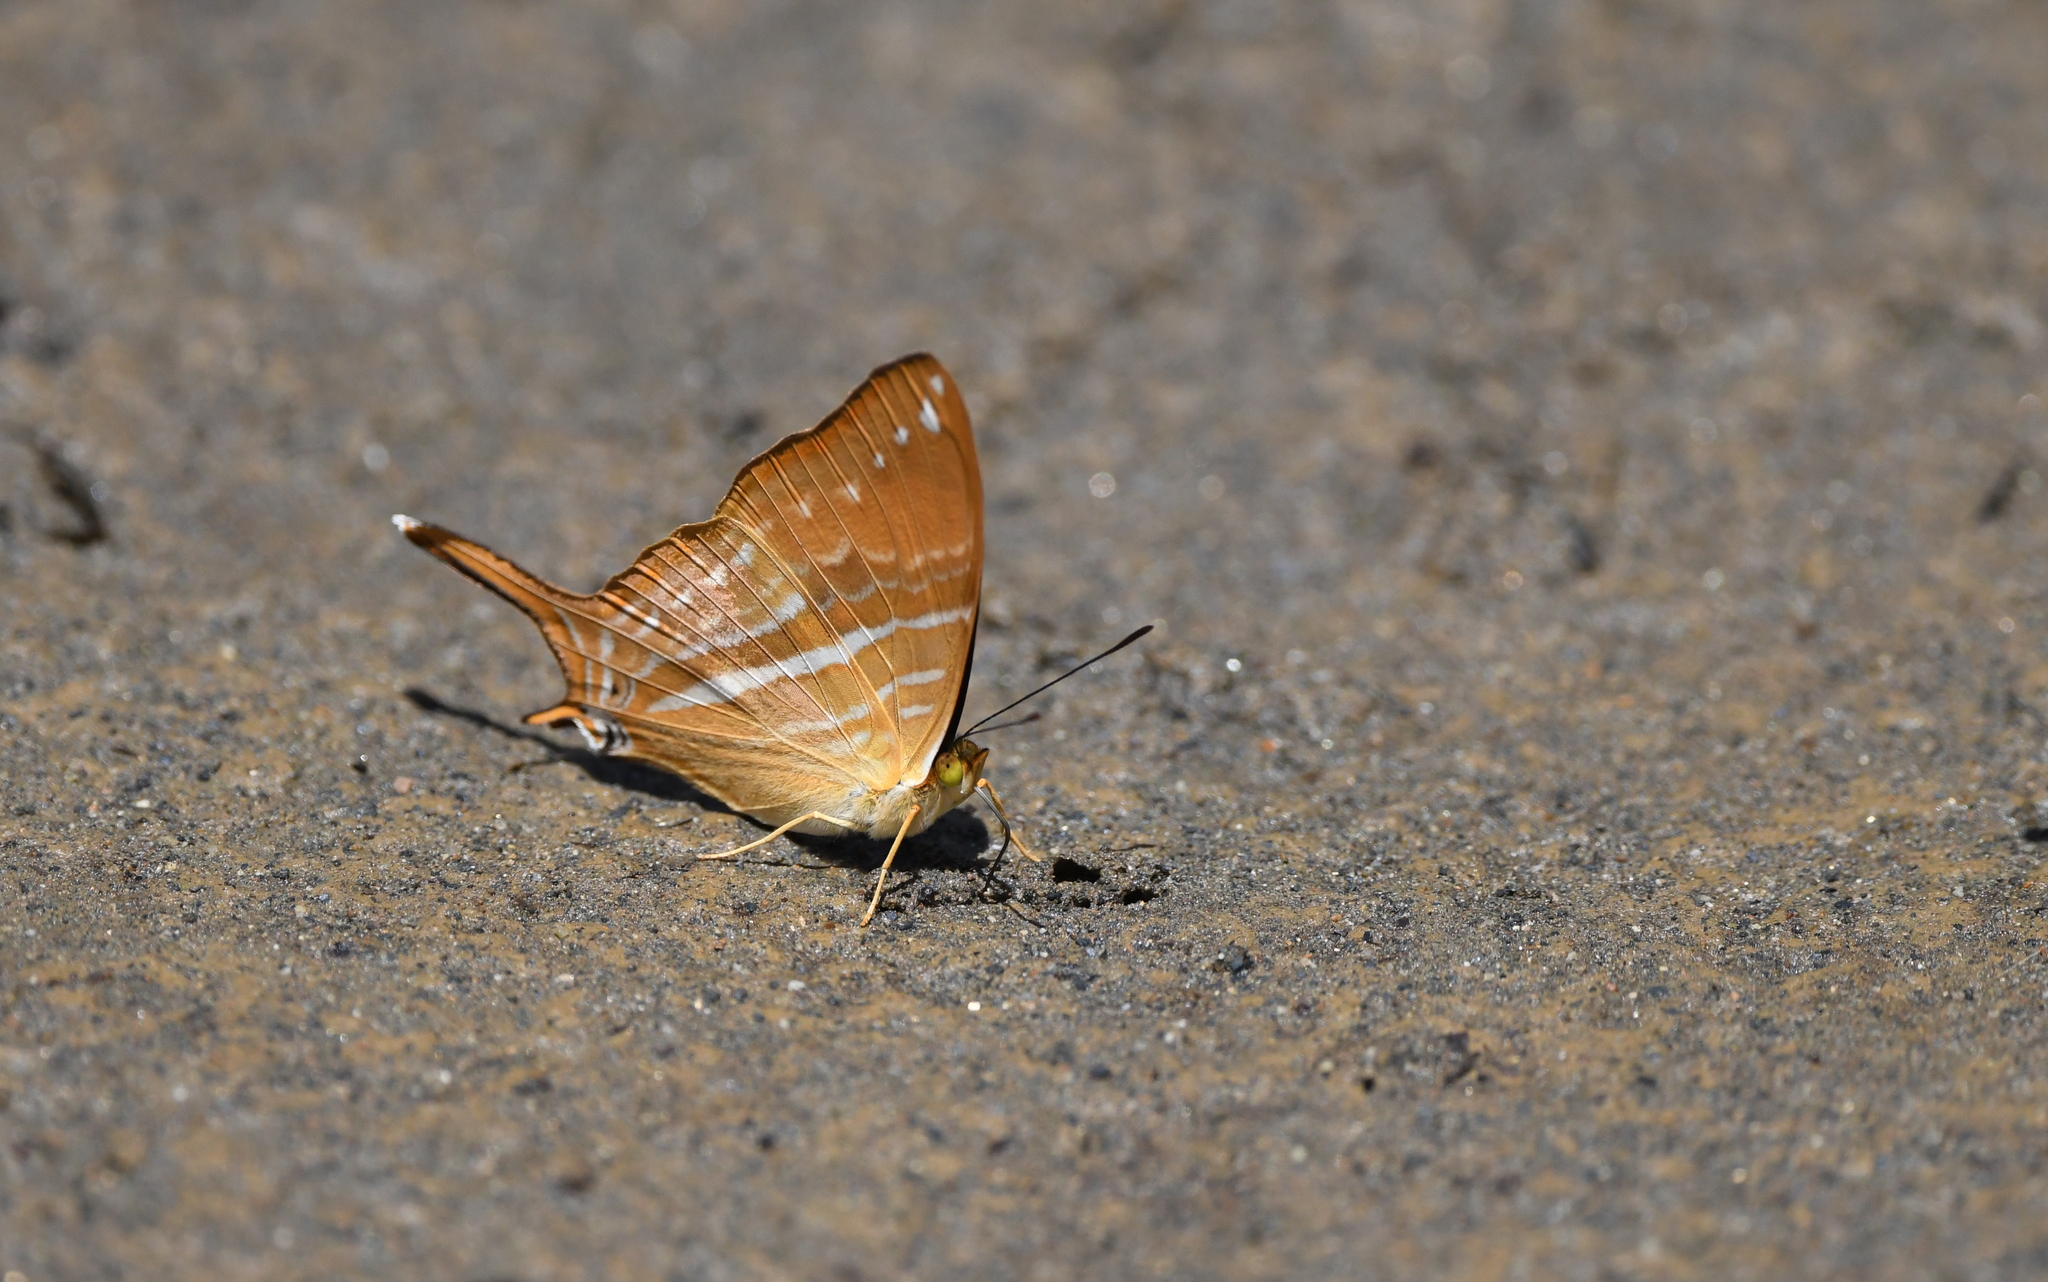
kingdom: Animalia
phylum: Arthropoda
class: Insecta
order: Lepidoptera
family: Nymphalidae
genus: Marpesia
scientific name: Marpesia corinna
